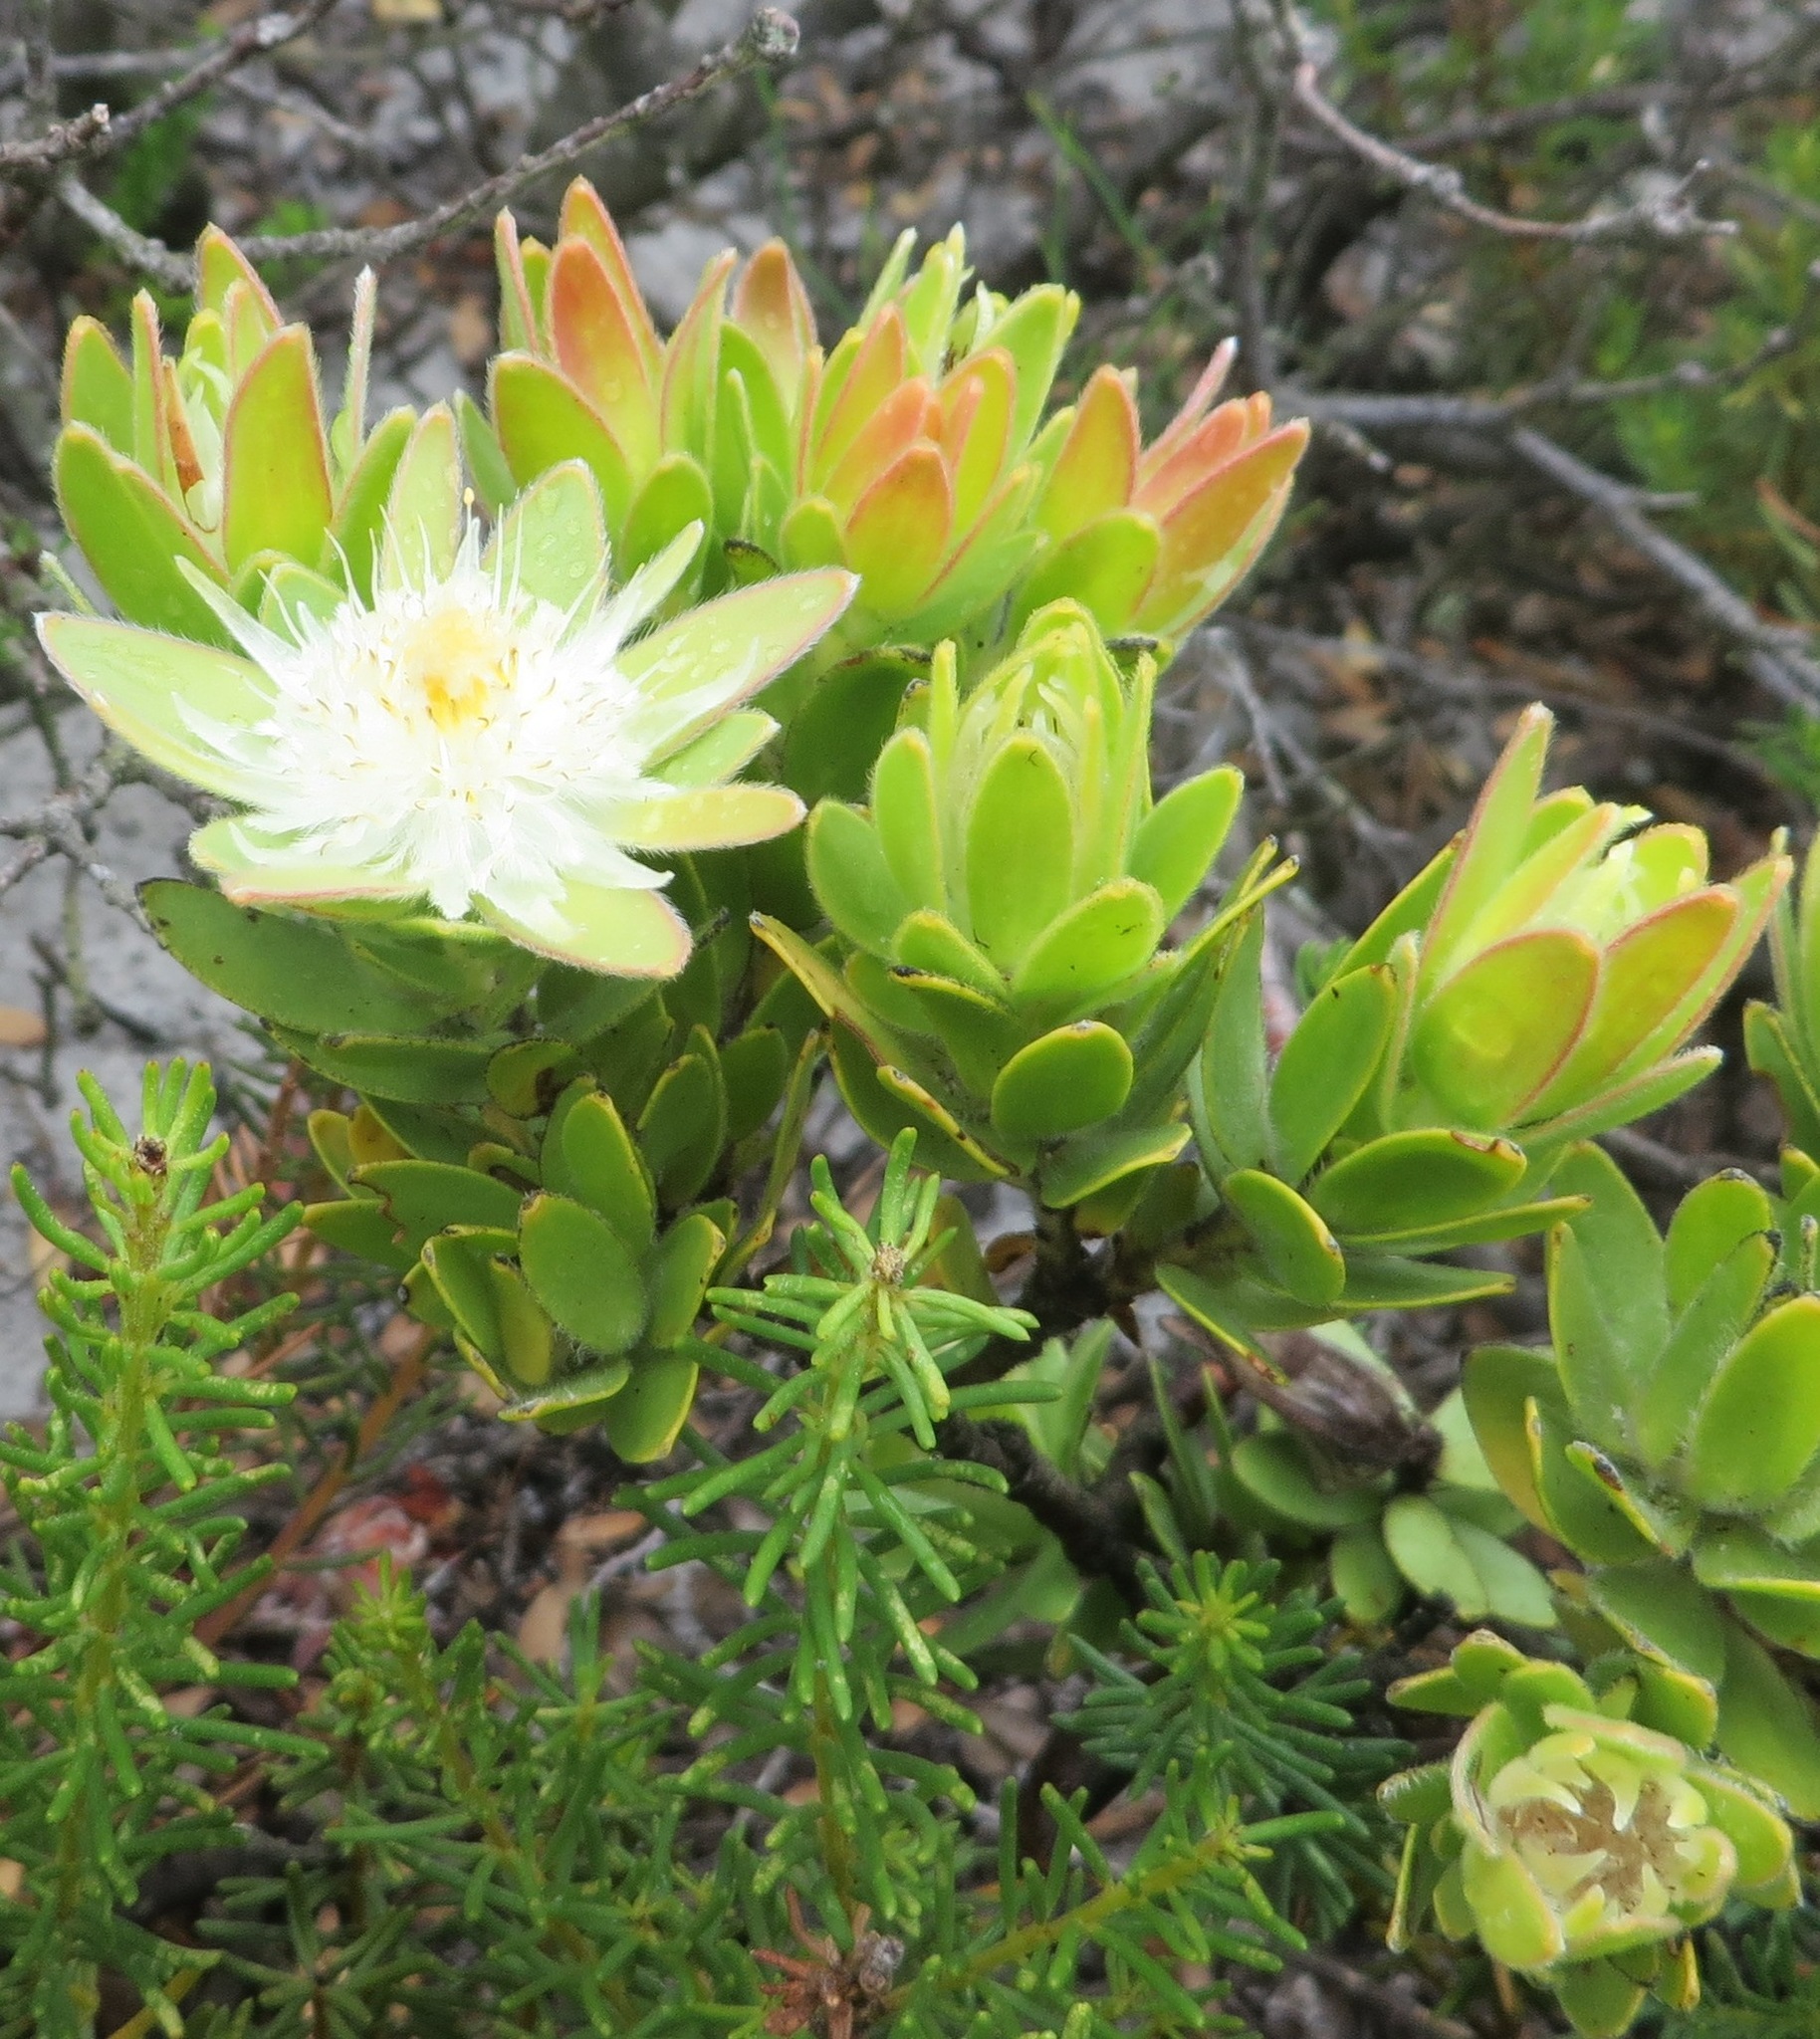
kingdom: Plantae
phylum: Tracheophyta
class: Magnoliopsida
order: Proteales
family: Proteaceae
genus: Diastella
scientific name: Diastella thymelaeoides
